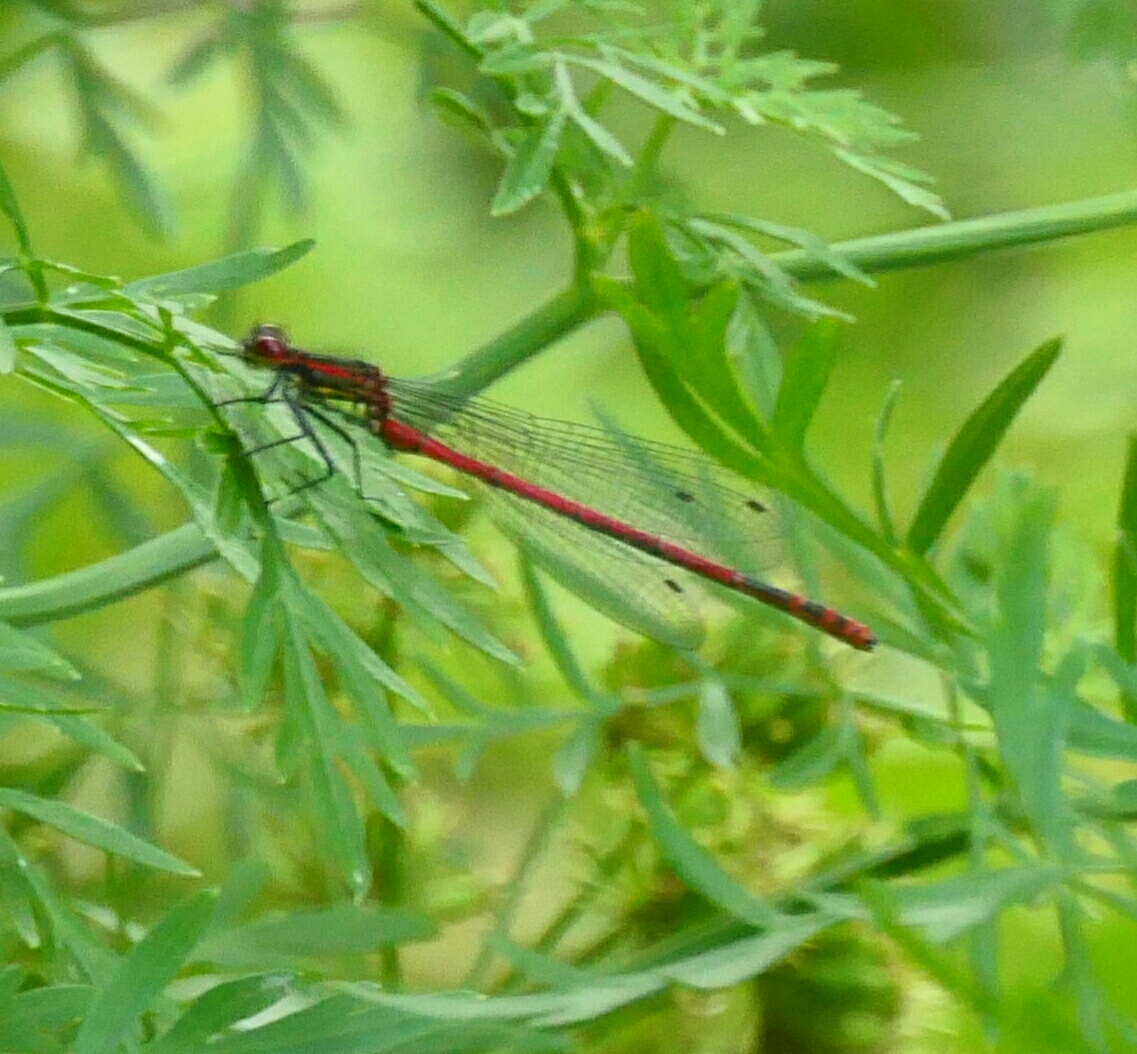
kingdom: Animalia
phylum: Arthropoda
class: Insecta
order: Odonata
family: Coenagrionidae
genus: Pyrrhosoma
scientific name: Pyrrhosoma nymphula
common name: Large red damsel
